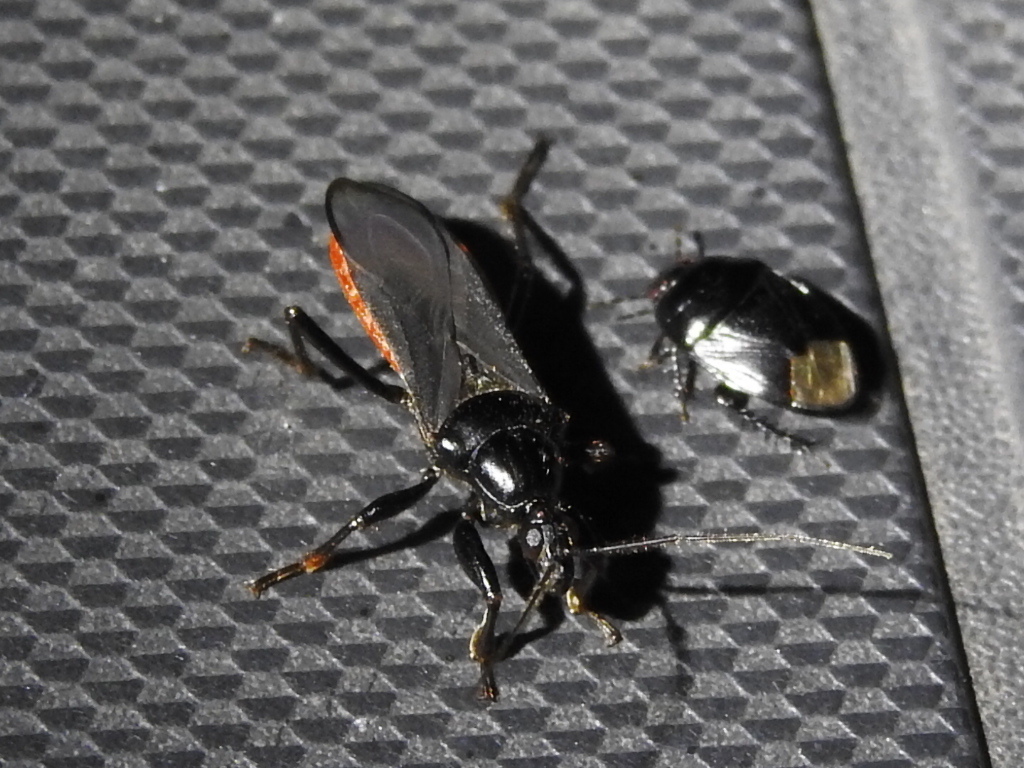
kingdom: Animalia
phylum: Arthropoda
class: Insecta
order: Hemiptera
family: Reduviidae
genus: Melanolestes
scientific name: Melanolestes picipes
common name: Assassin bug
